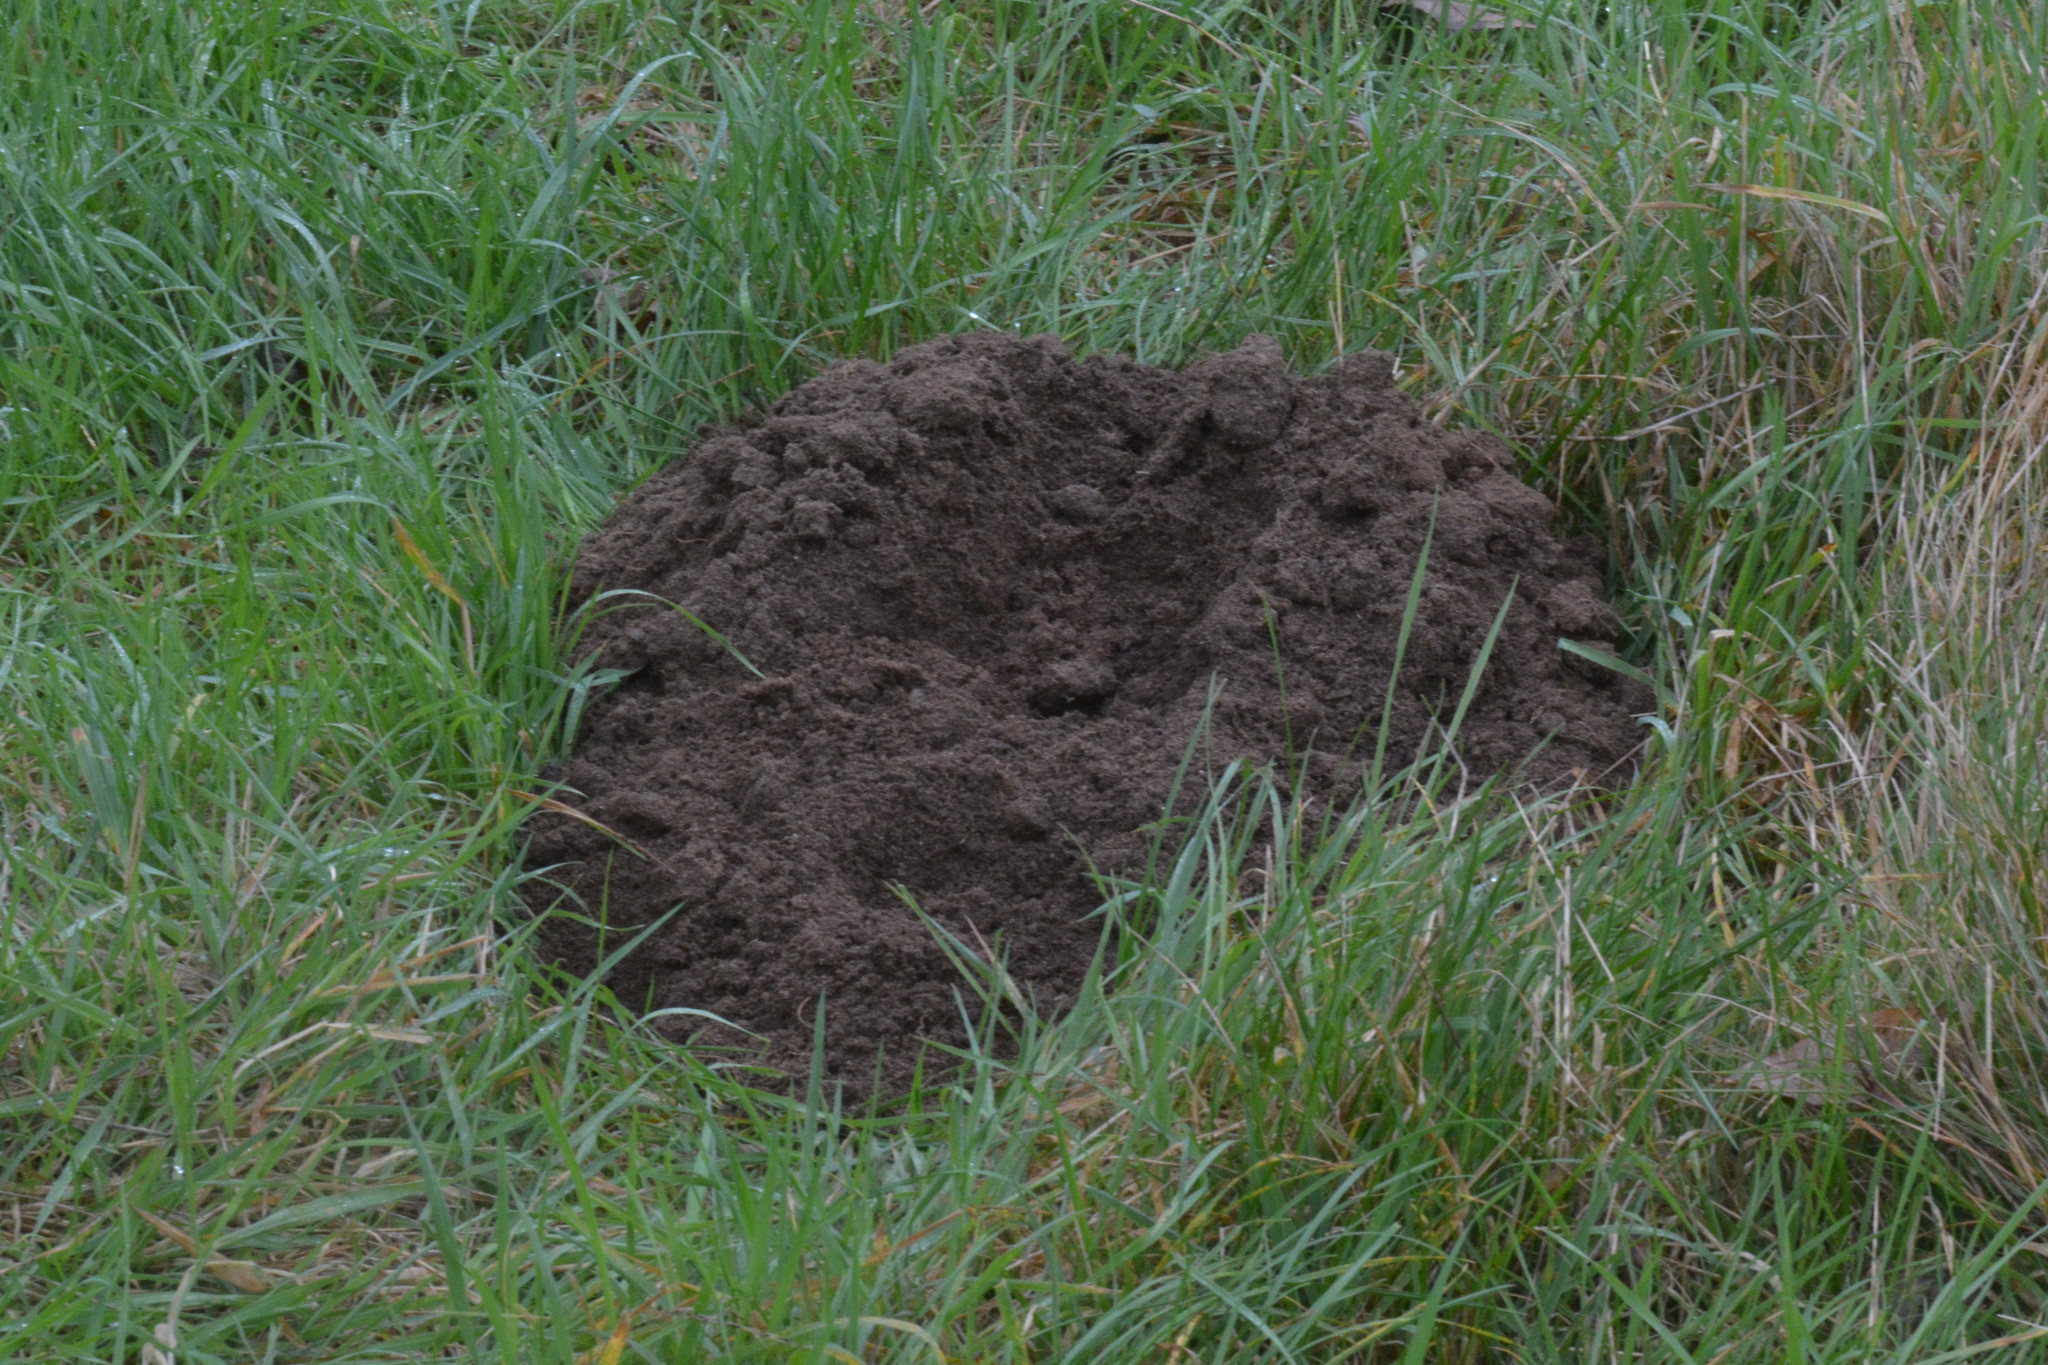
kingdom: Animalia
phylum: Chordata
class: Mammalia
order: Soricomorpha
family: Talpidae
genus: Talpa
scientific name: Talpa europaea
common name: European mole
